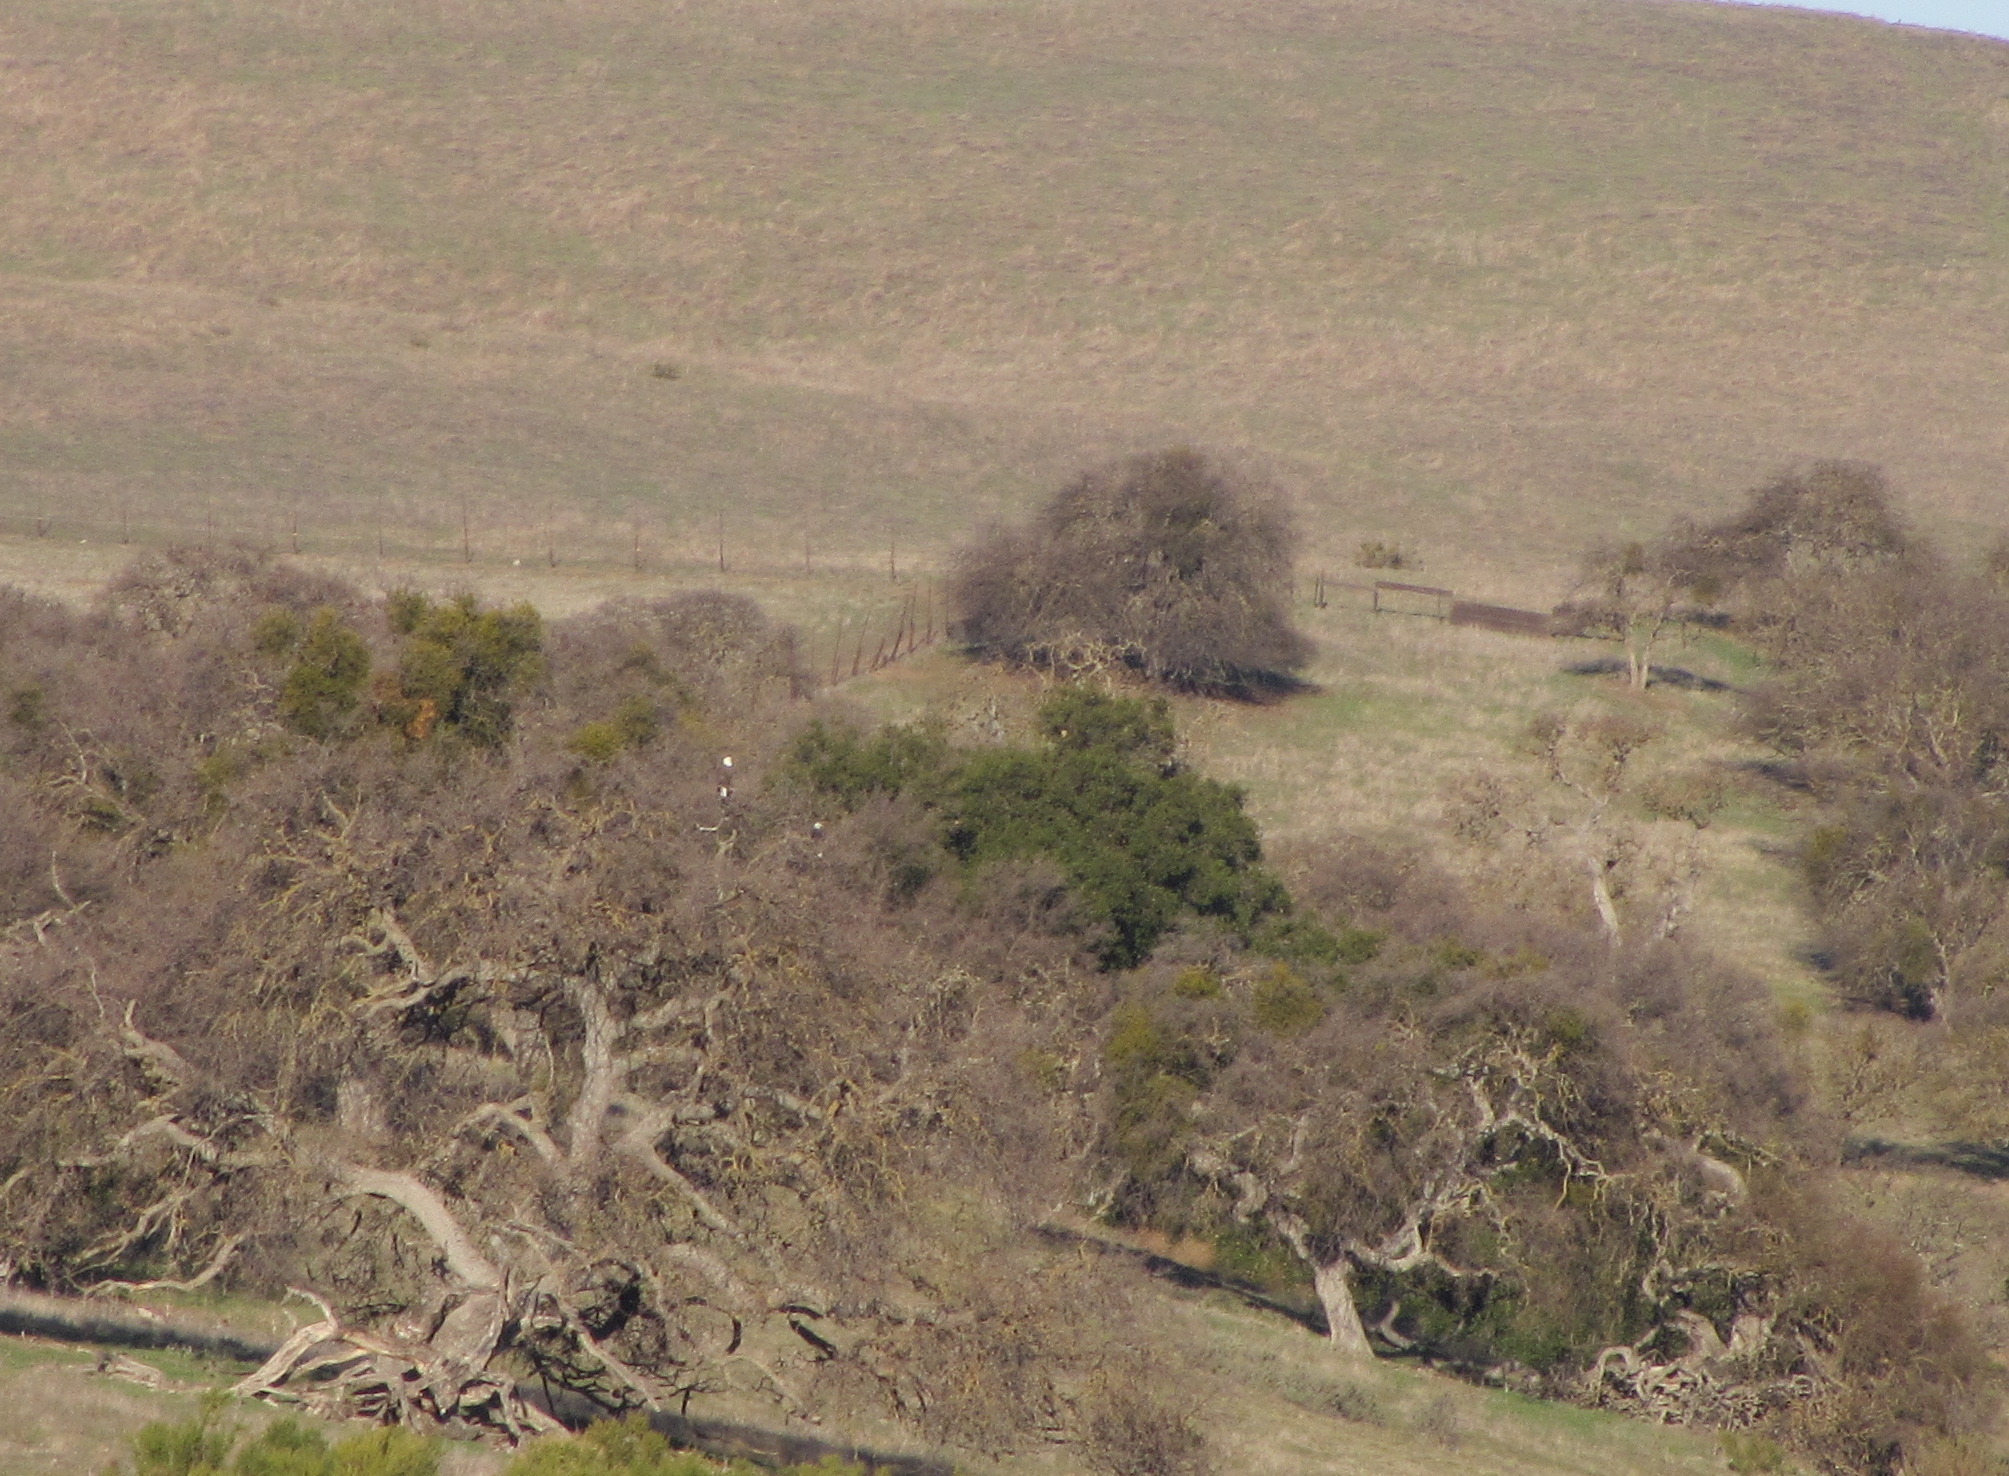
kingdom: Animalia
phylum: Chordata
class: Aves
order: Accipitriformes
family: Accipitridae
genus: Haliaeetus
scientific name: Haliaeetus leucocephalus
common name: Bald eagle
